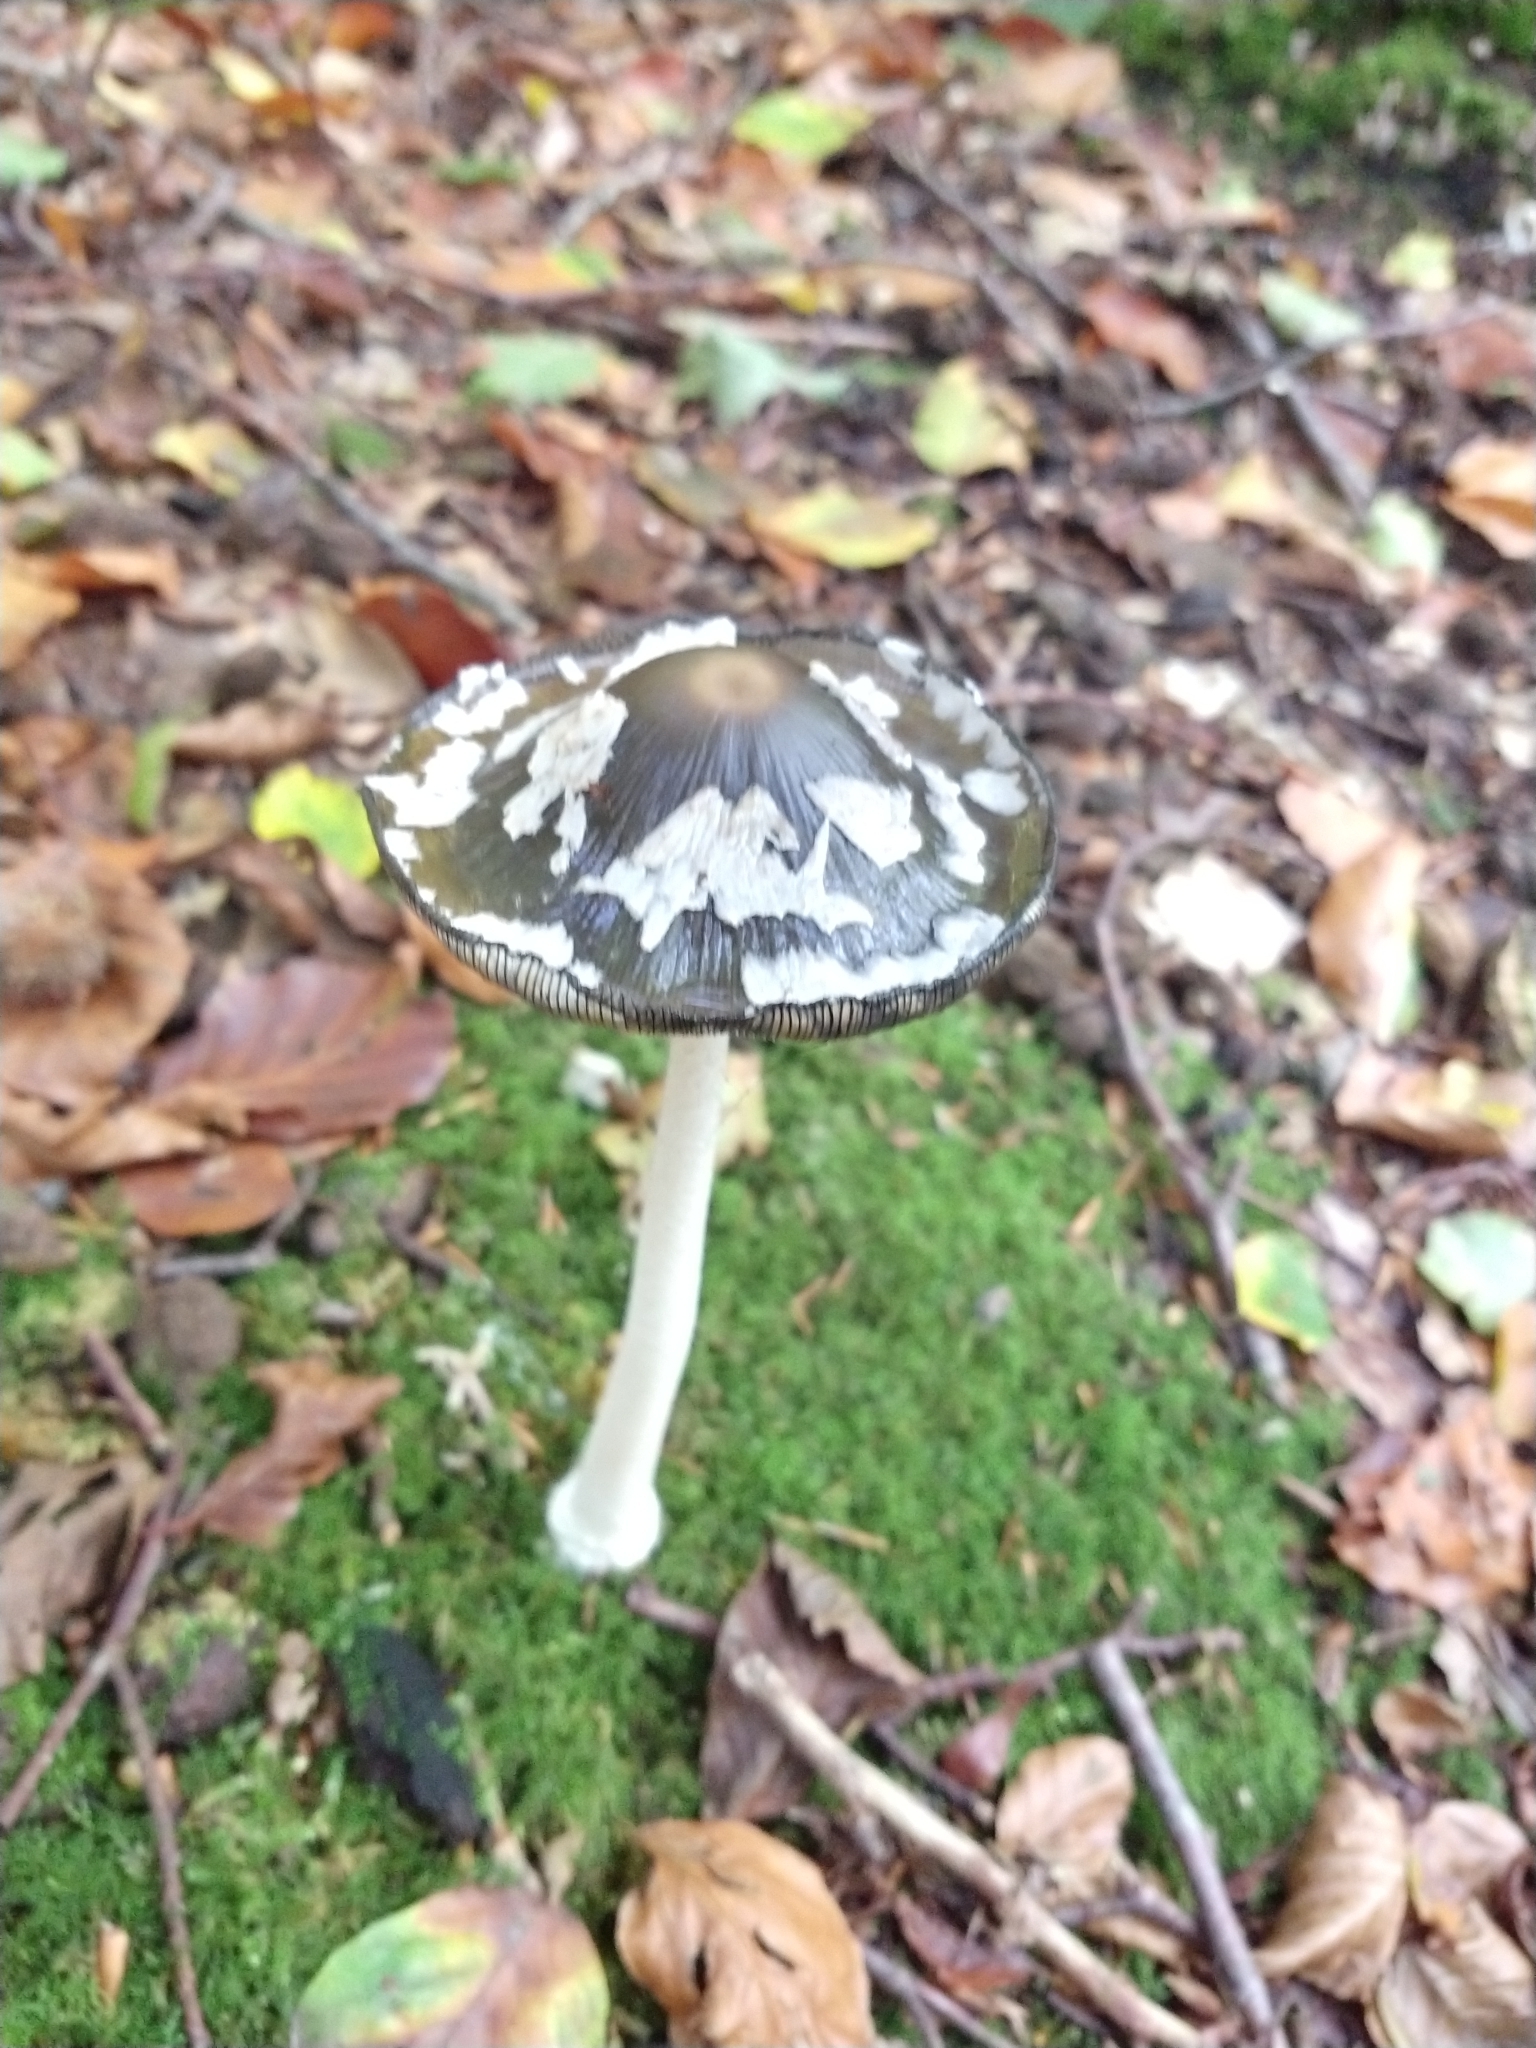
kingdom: Fungi
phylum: Basidiomycota
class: Agaricomycetes
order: Agaricales
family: Psathyrellaceae
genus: Coprinopsis
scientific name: Coprinopsis picacea
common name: Magpie inkcap
